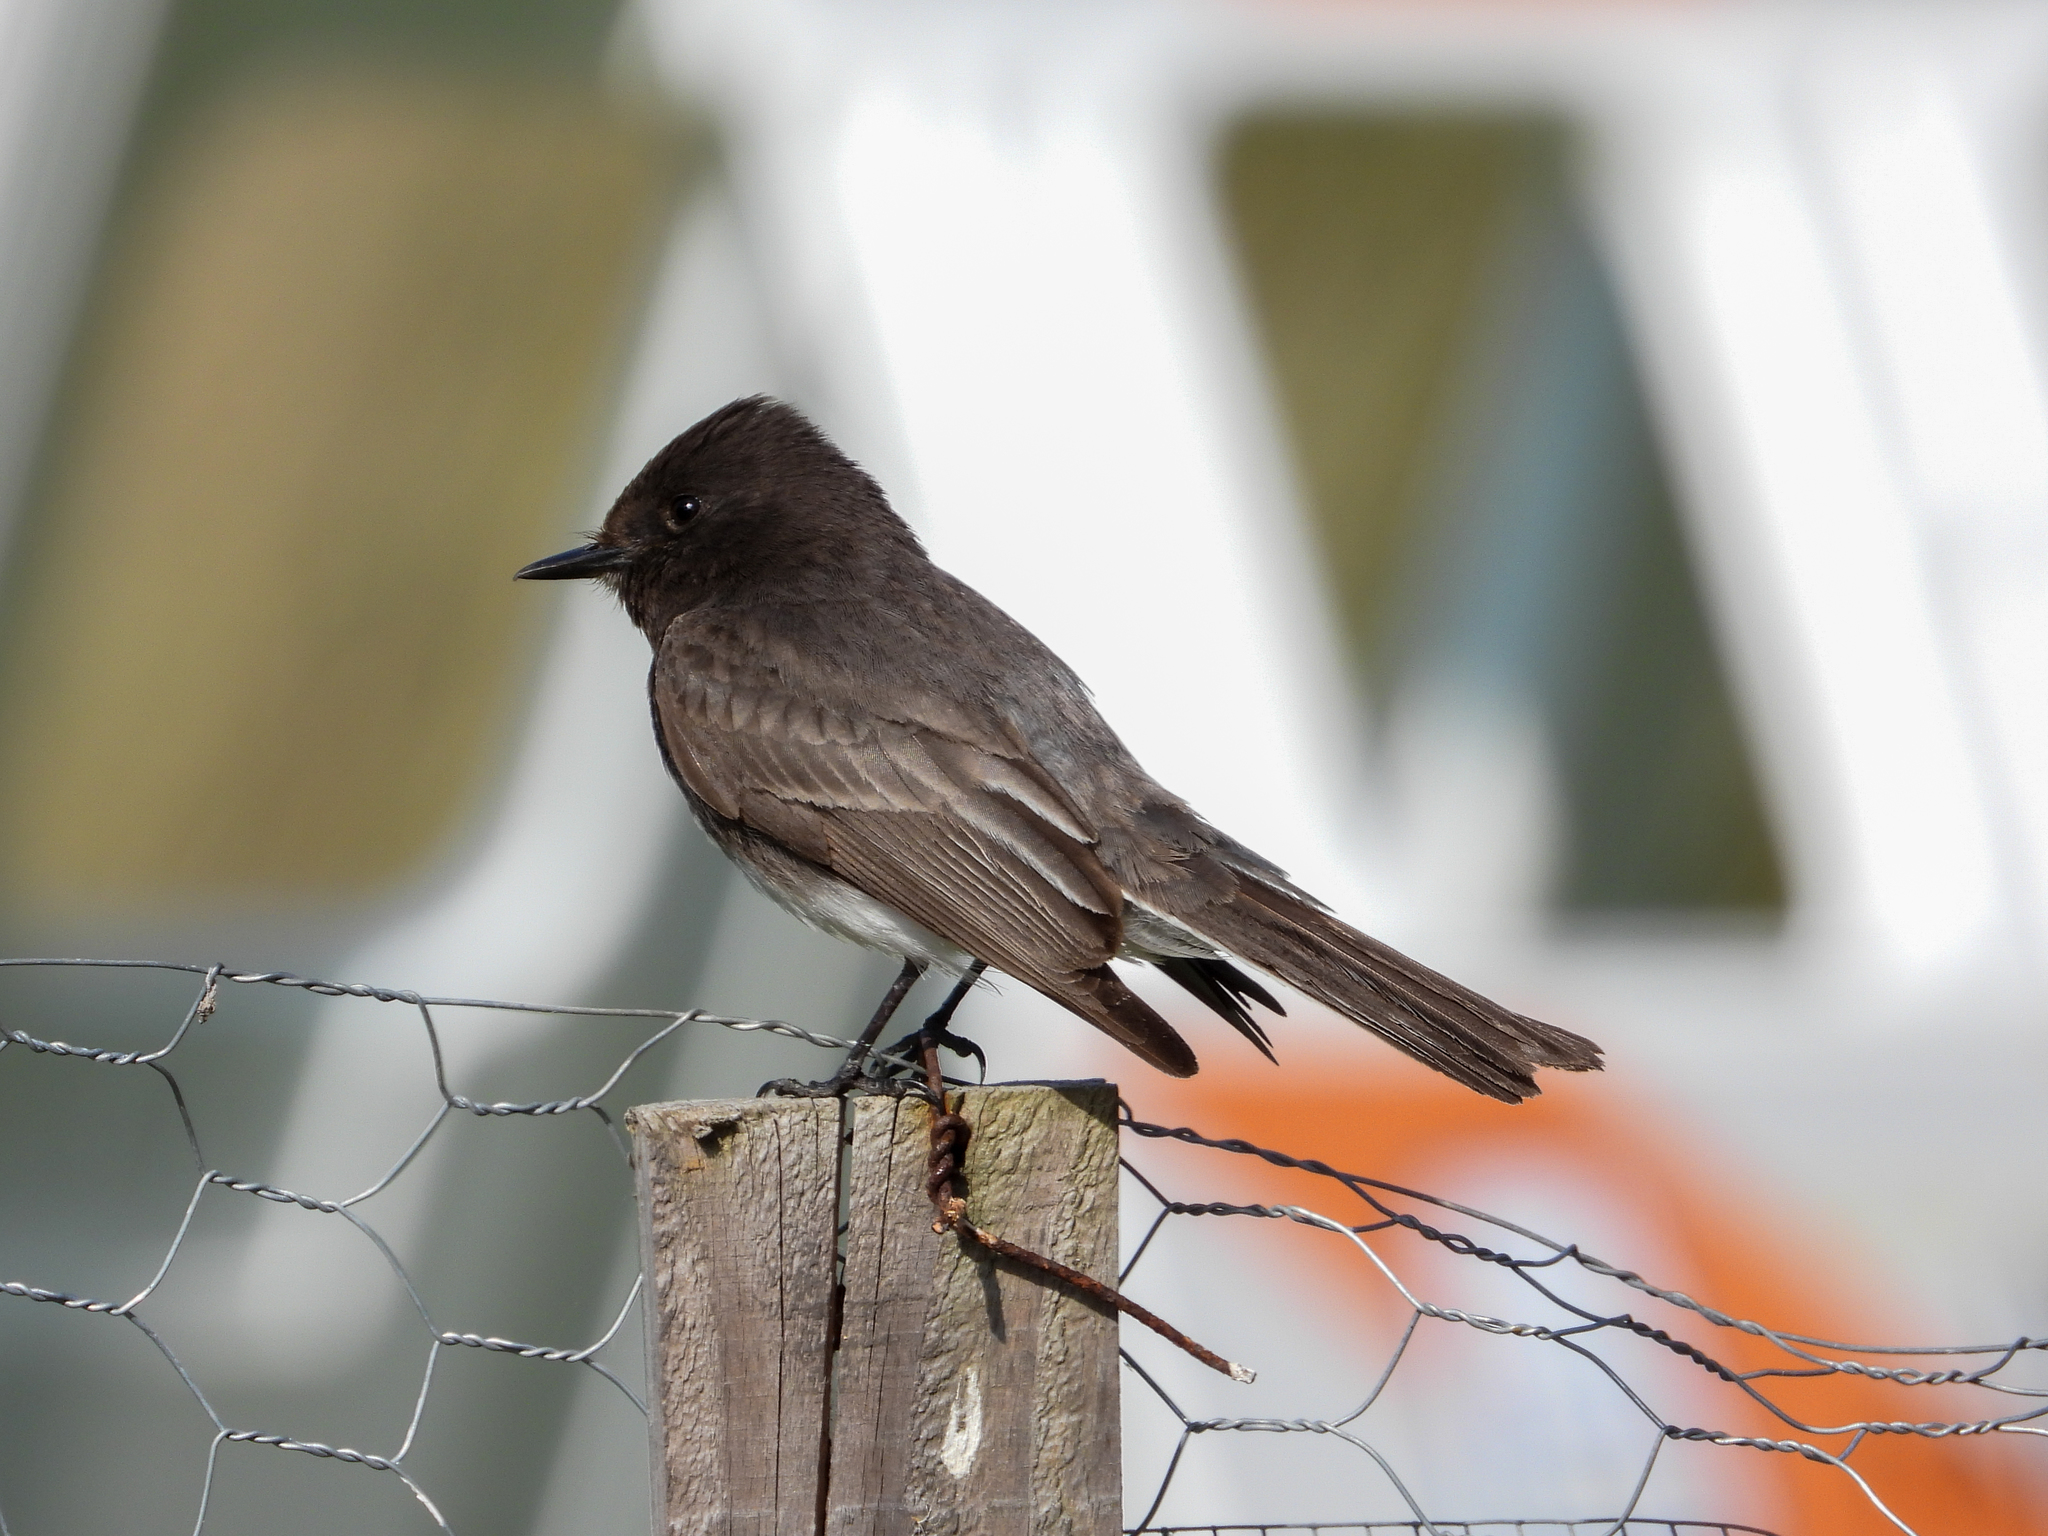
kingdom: Animalia
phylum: Chordata
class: Aves
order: Passeriformes
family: Tyrannidae
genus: Sayornis
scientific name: Sayornis nigricans
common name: Black phoebe
